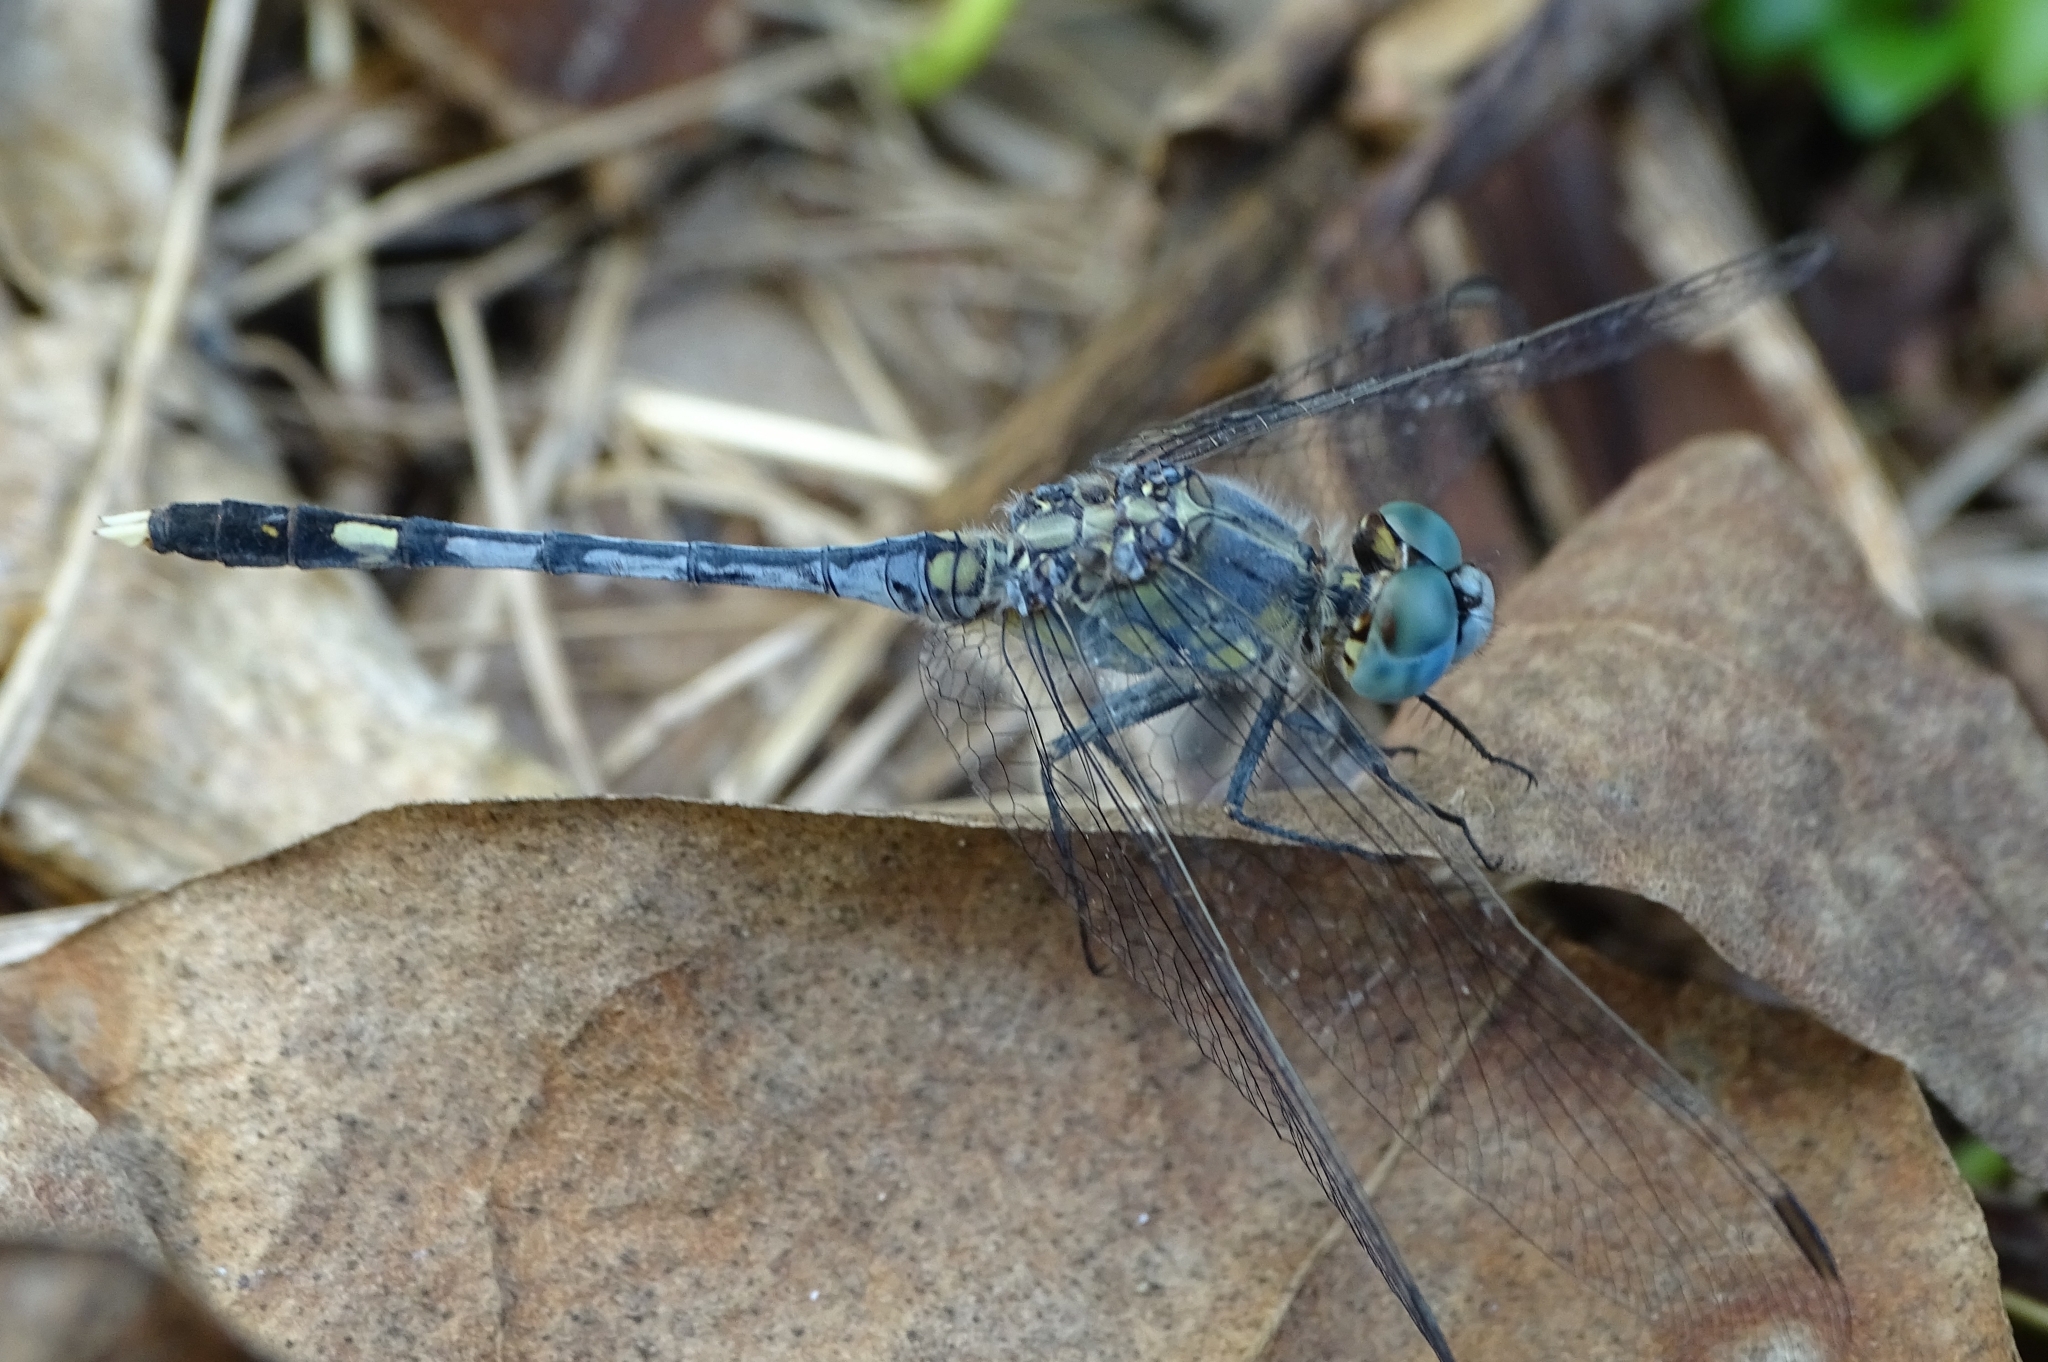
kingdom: Animalia
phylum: Arthropoda
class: Insecta
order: Odonata
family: Libellulidae
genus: Diplacodes
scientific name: Diplacodes trivialis
